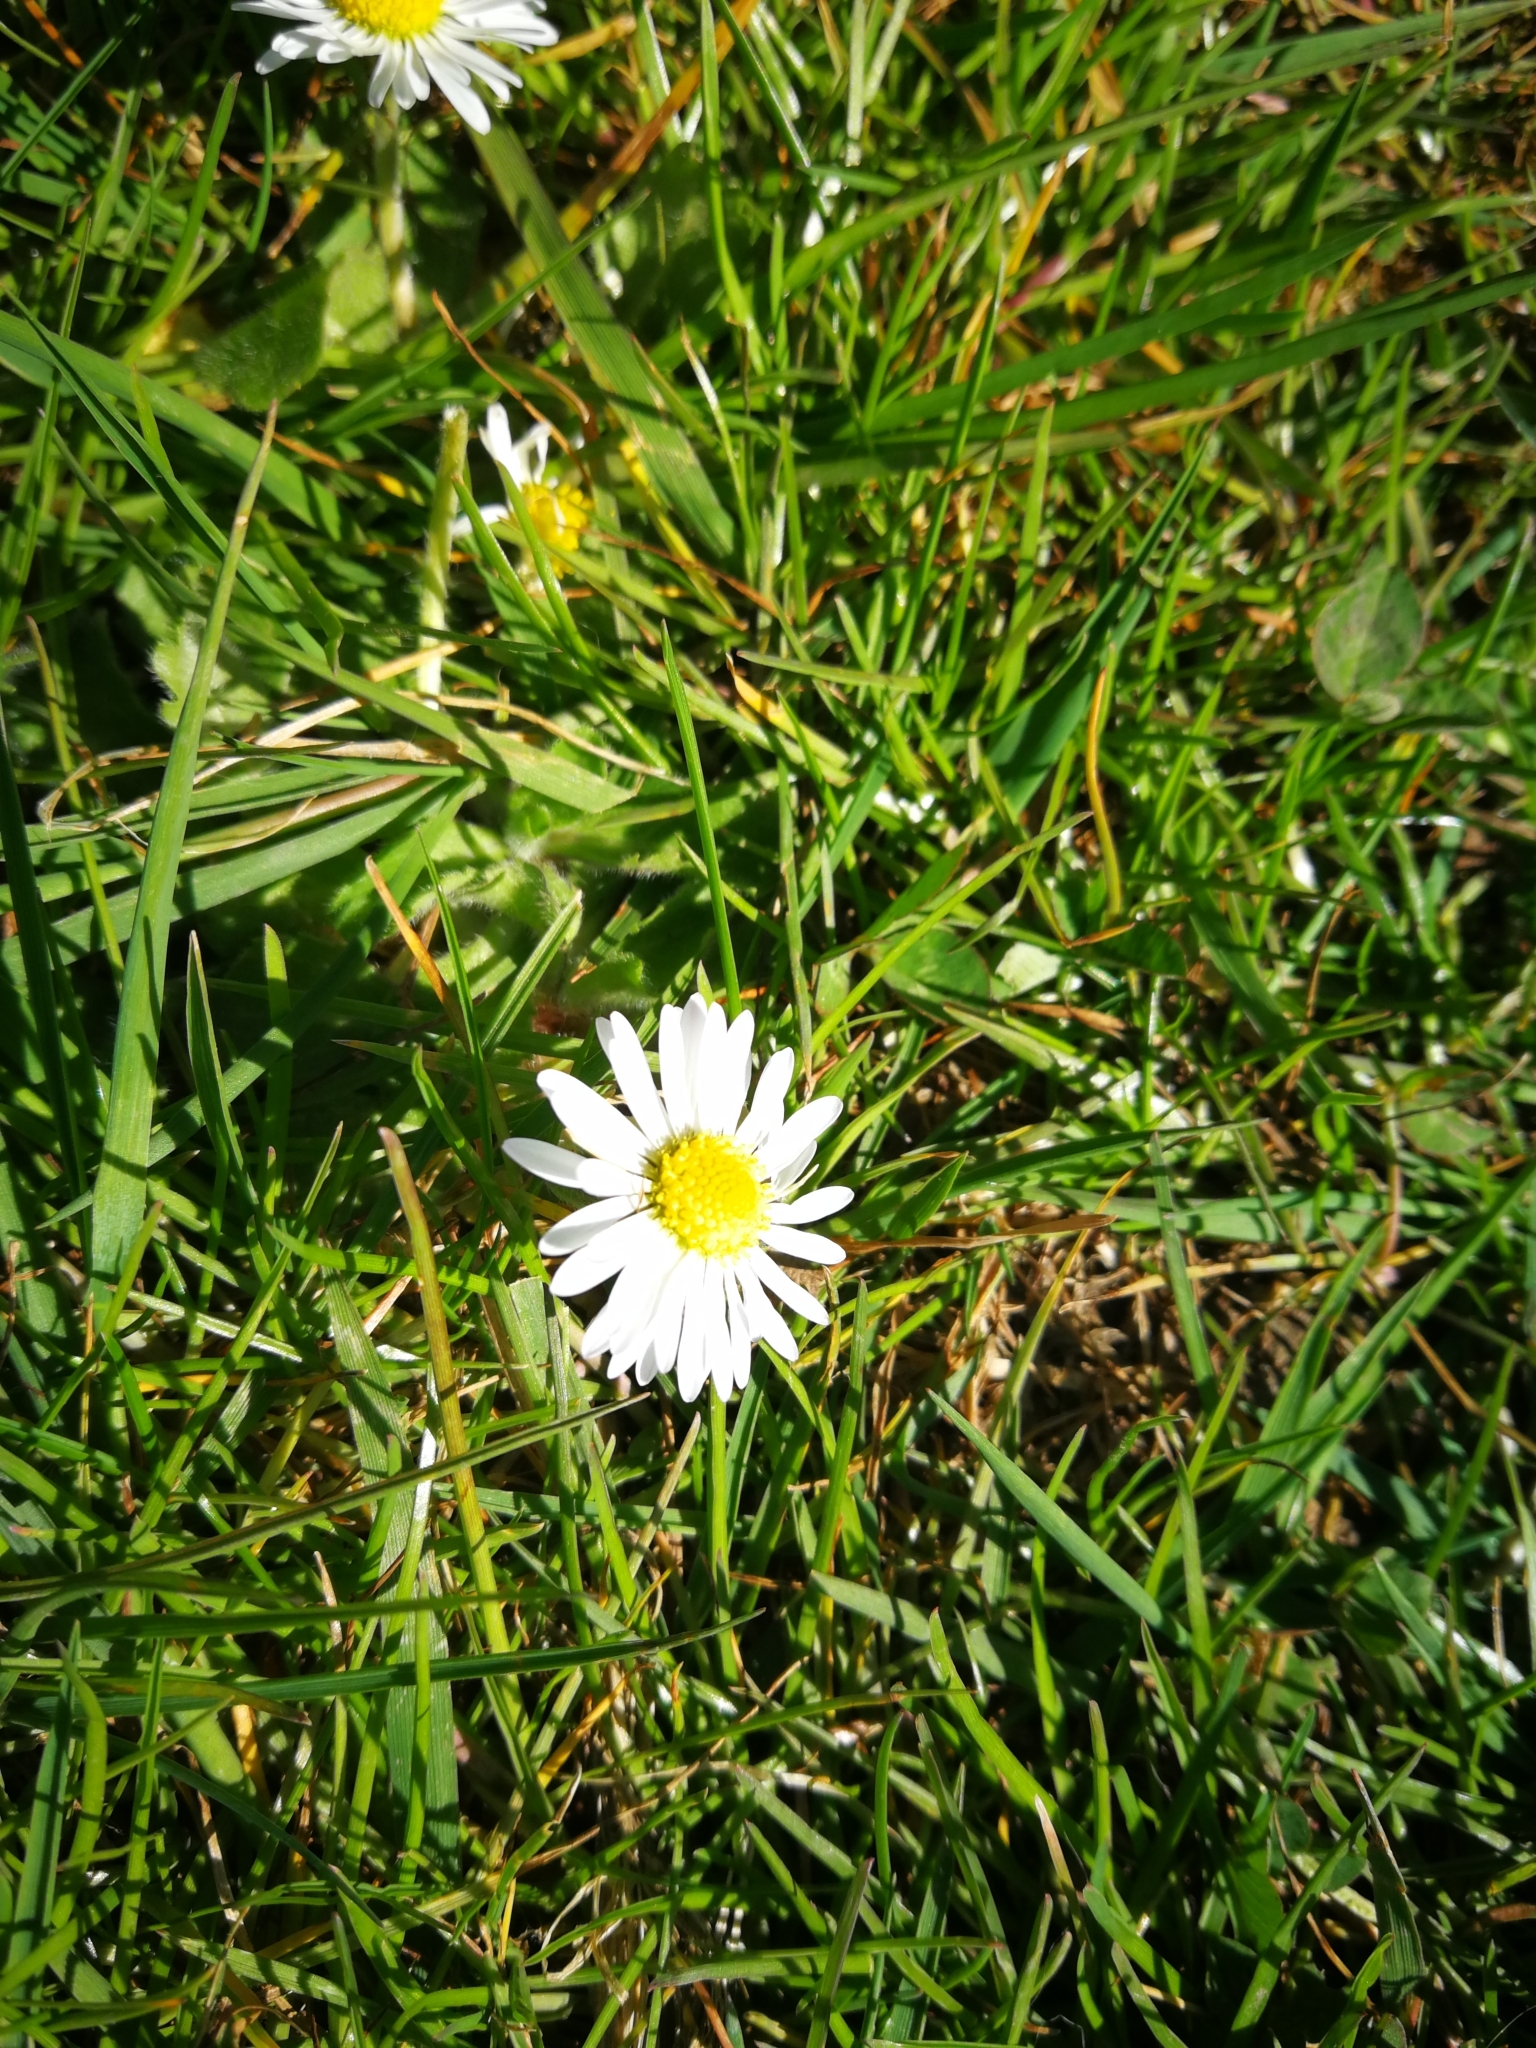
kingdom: Plantae
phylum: Tracheophyta
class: Magnoliopsida
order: Asterales
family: Asteraceae
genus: Bellis
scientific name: Bellis perennis
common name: Lawndaisy
